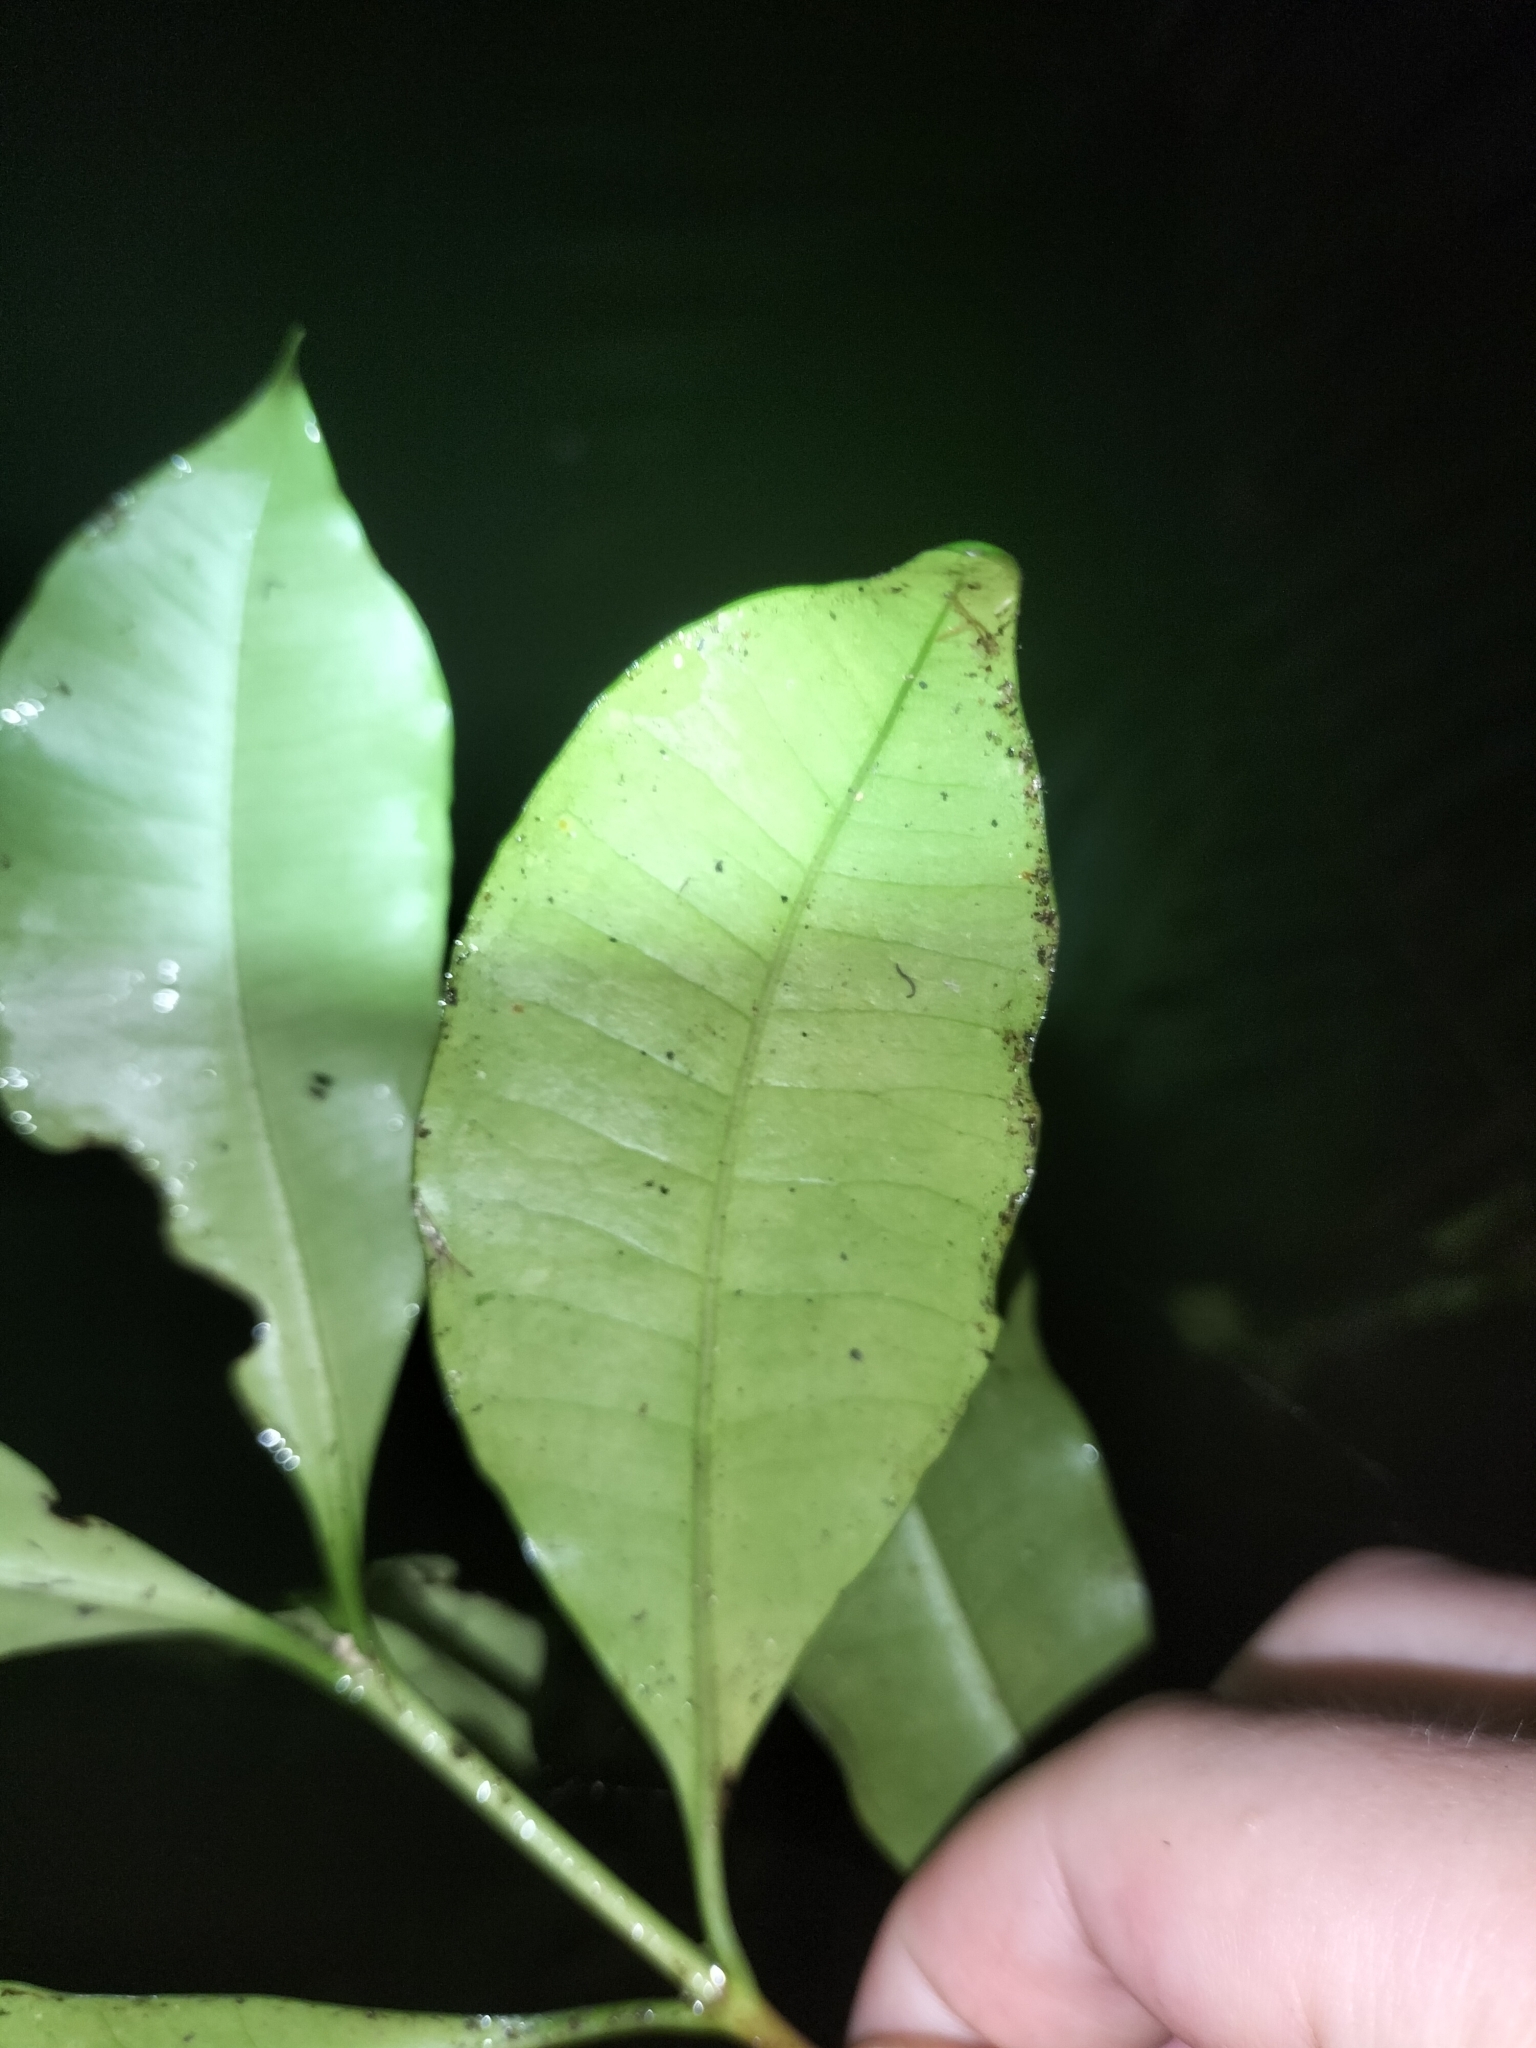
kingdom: Plantae
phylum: Tracheophyta
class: Magnoliopsida
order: Gentianales
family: Apocynaceae
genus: Ochrosia
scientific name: Ochrosia poweri
